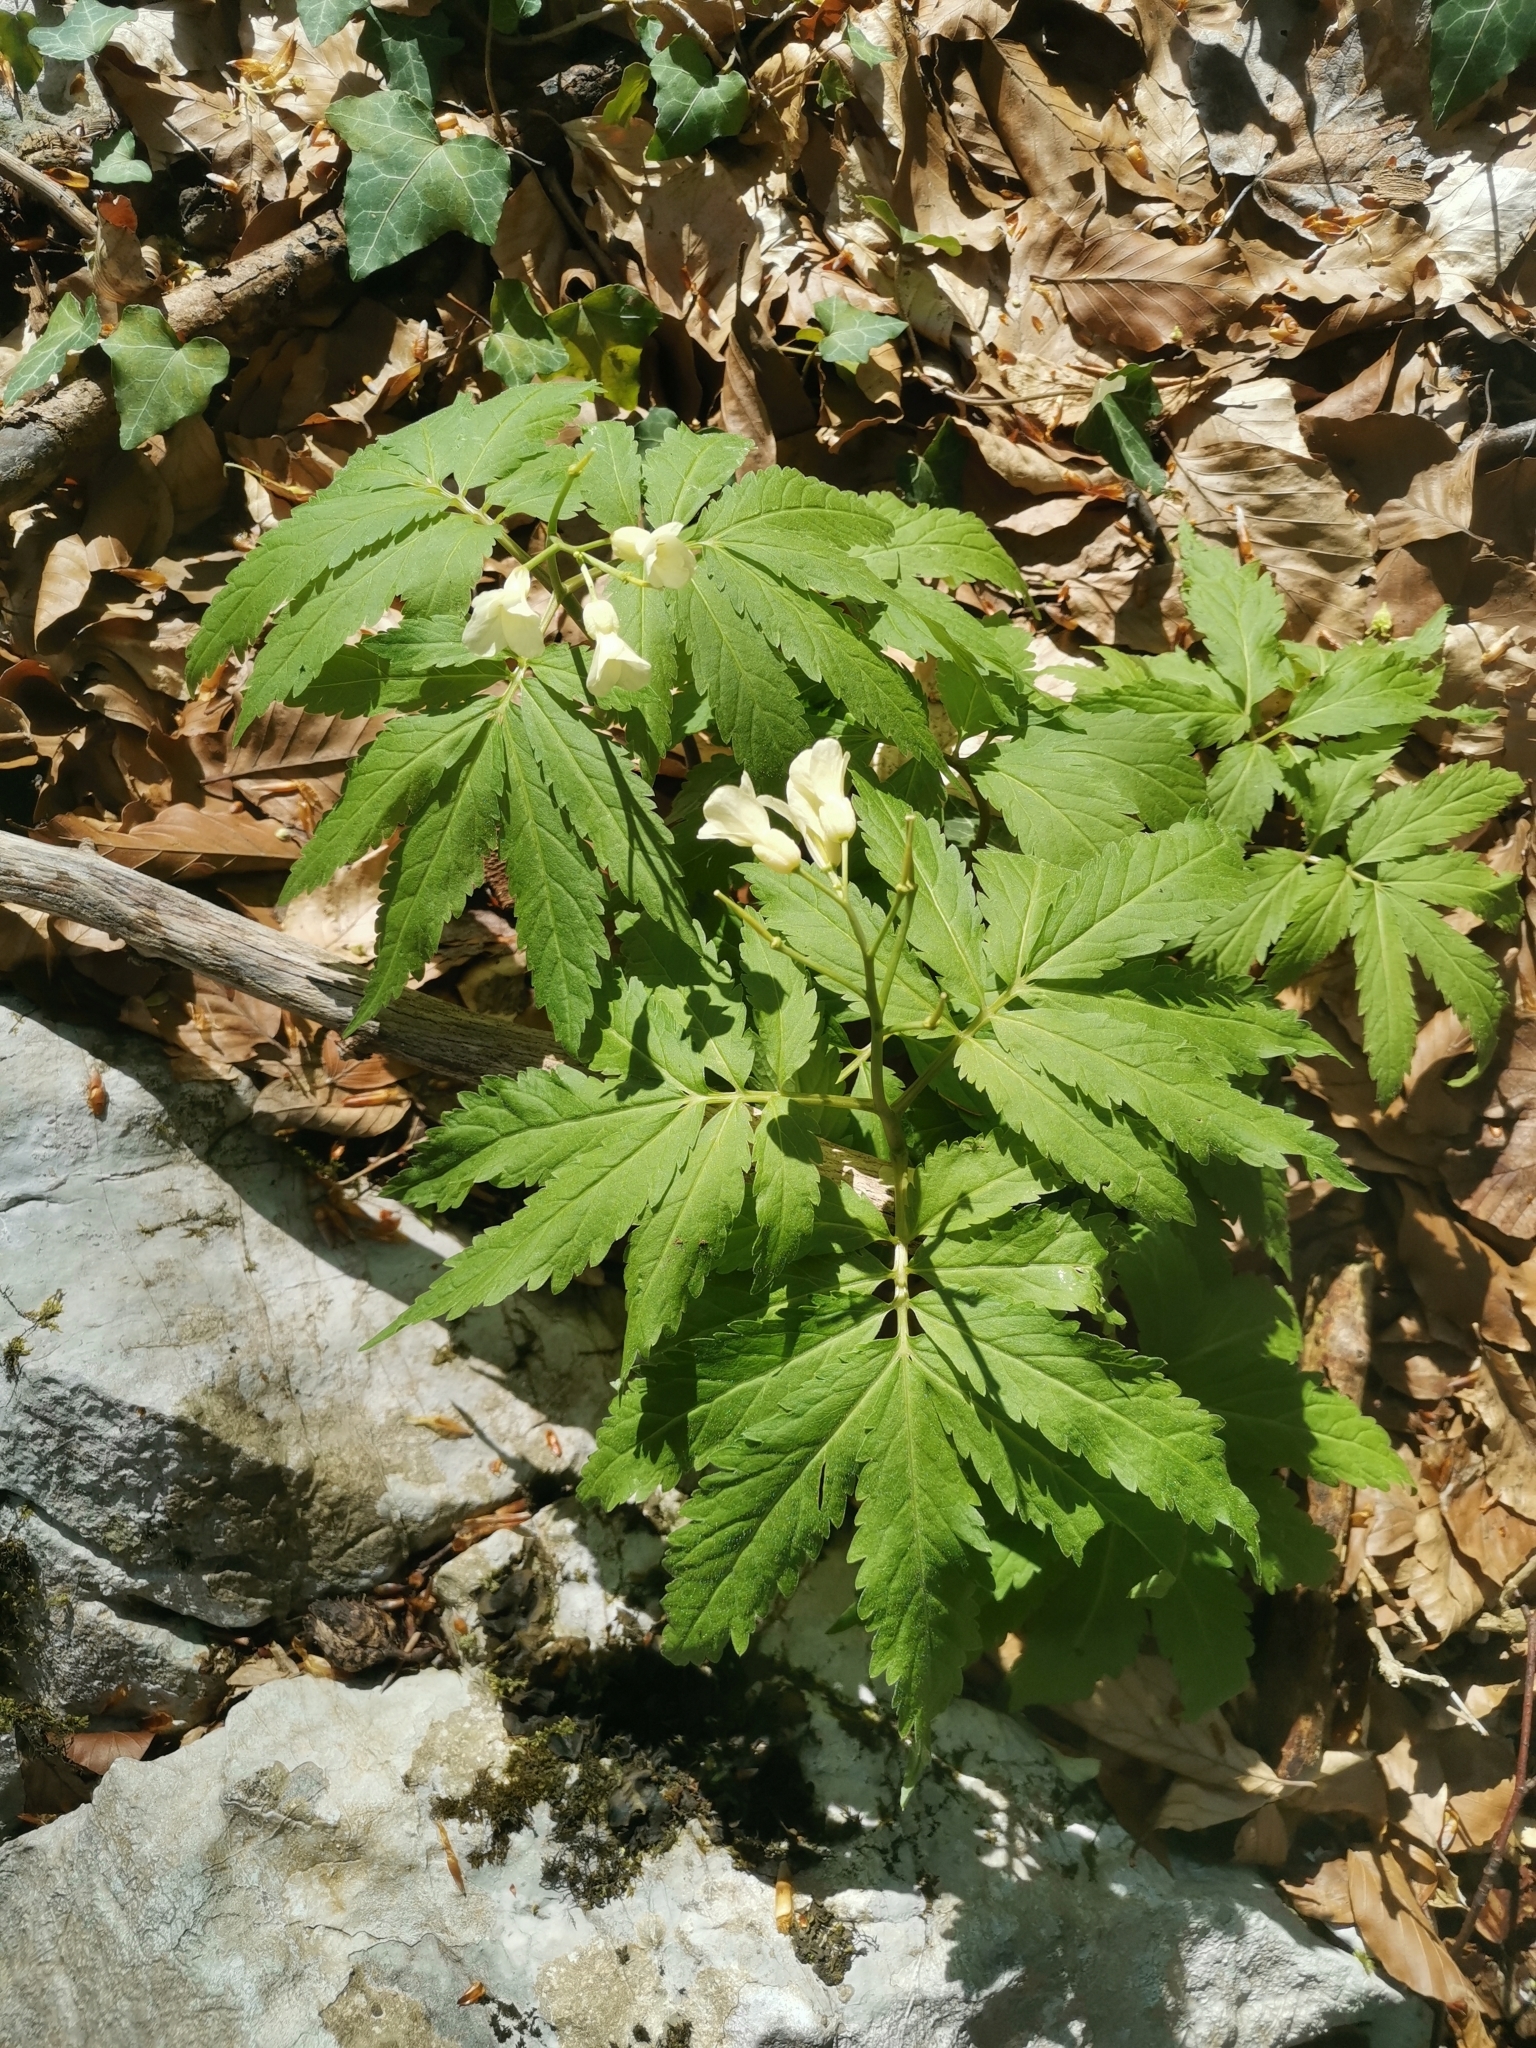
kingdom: Plantae
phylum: Tracheophyta
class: Magnoliopsida
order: Brassicales
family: Brassicaceae
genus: Cardamine
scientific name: Cardamine kitaibelii
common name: Kitaibel's bitter-cress
